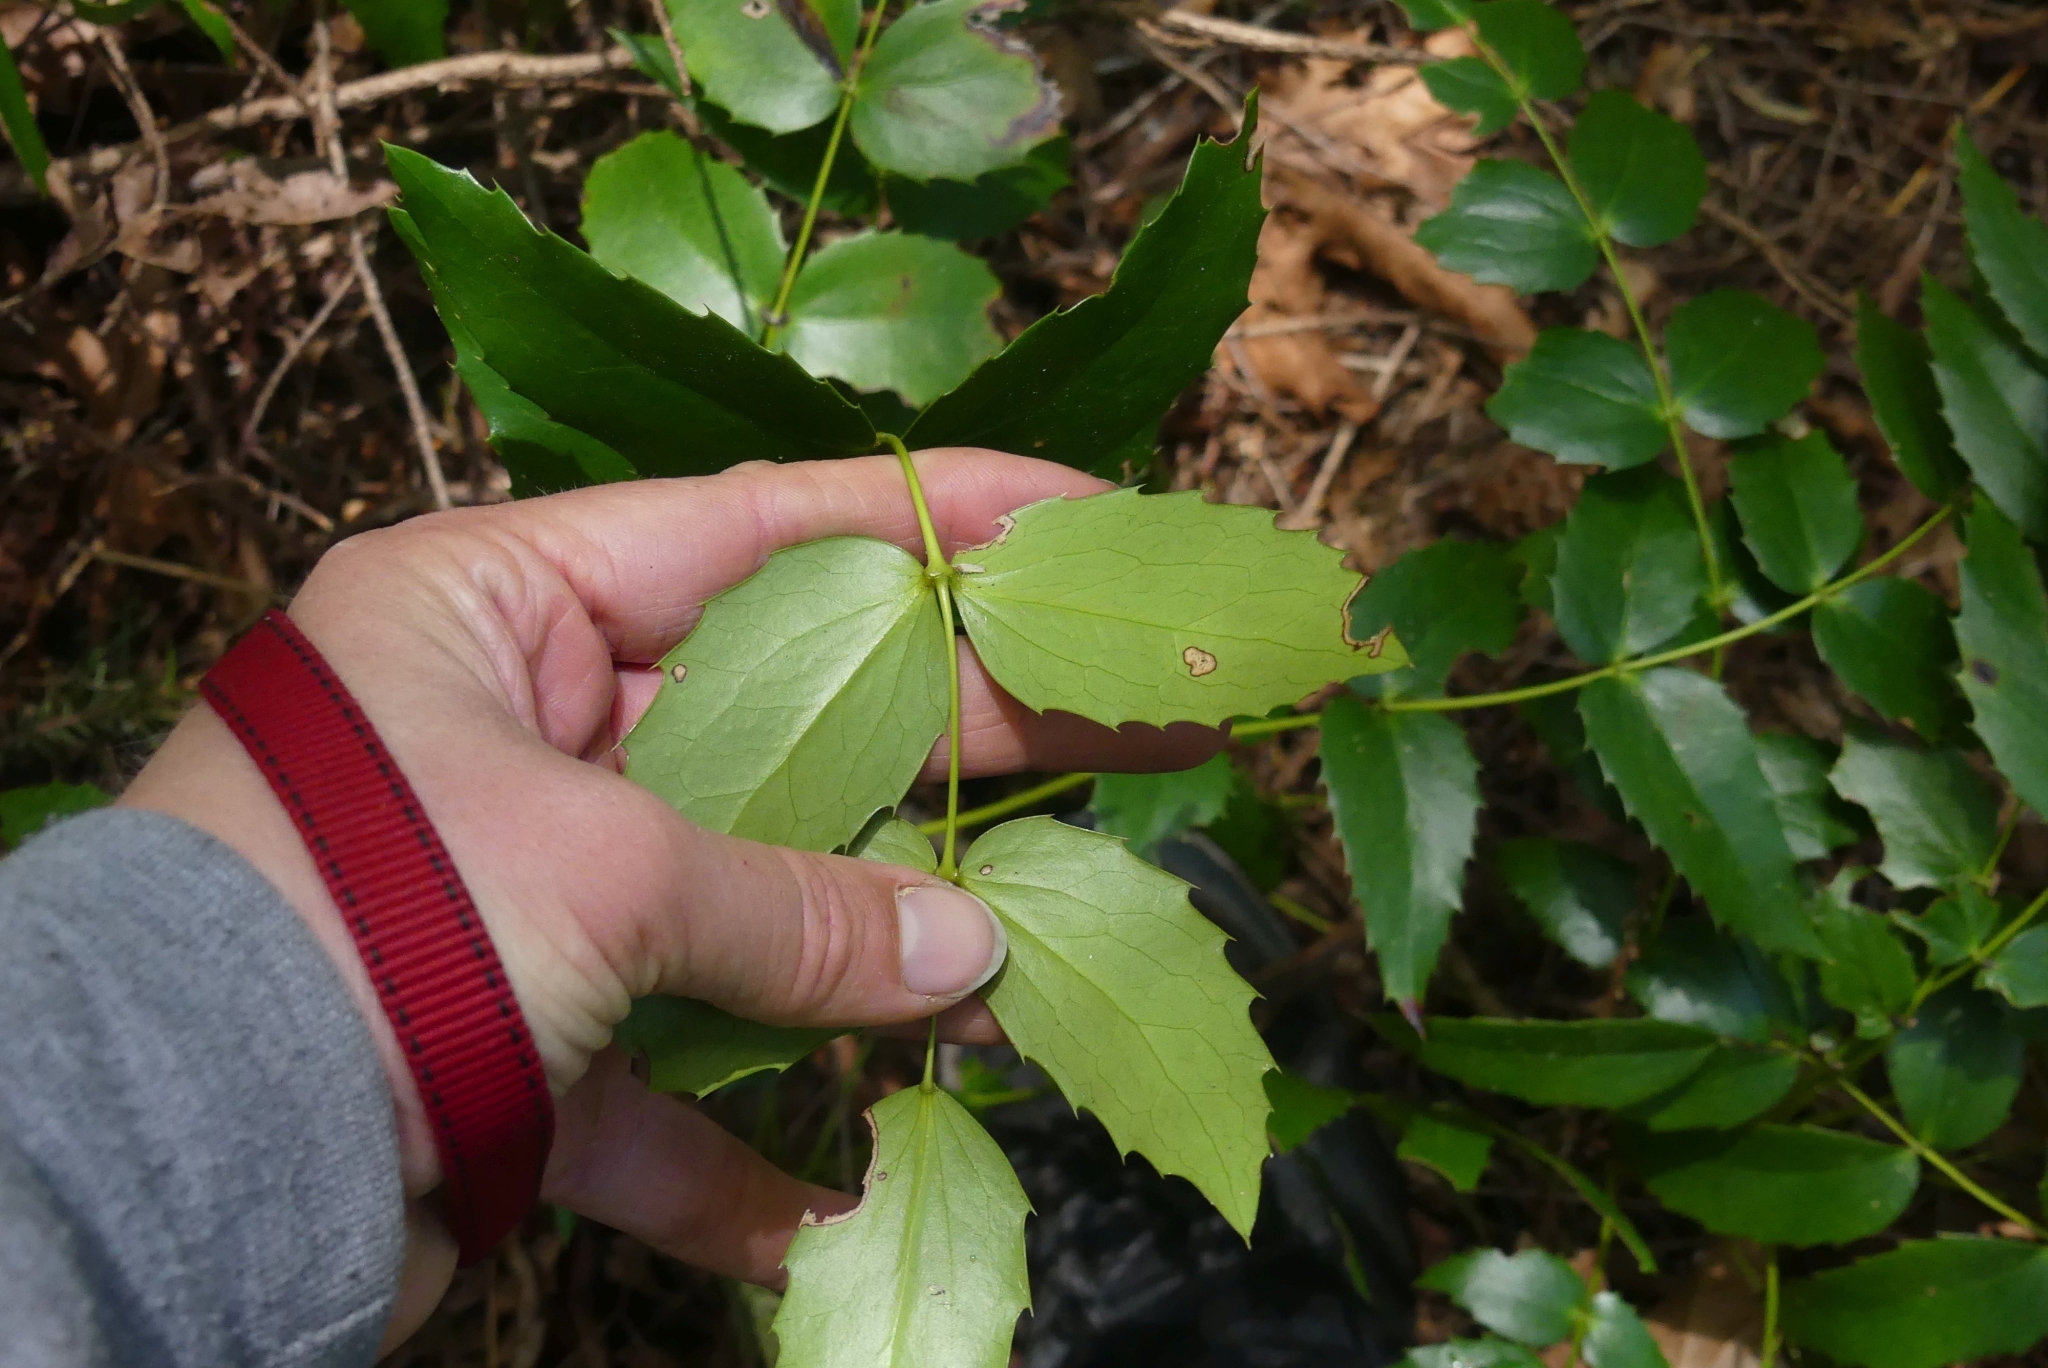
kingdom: Plantae
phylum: Tracheophyta
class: Magnoliopsida
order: Ranunculales
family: Berberidaceae
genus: Mahonia
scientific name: Mahonia nervosa
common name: Cascade oregon-grape
